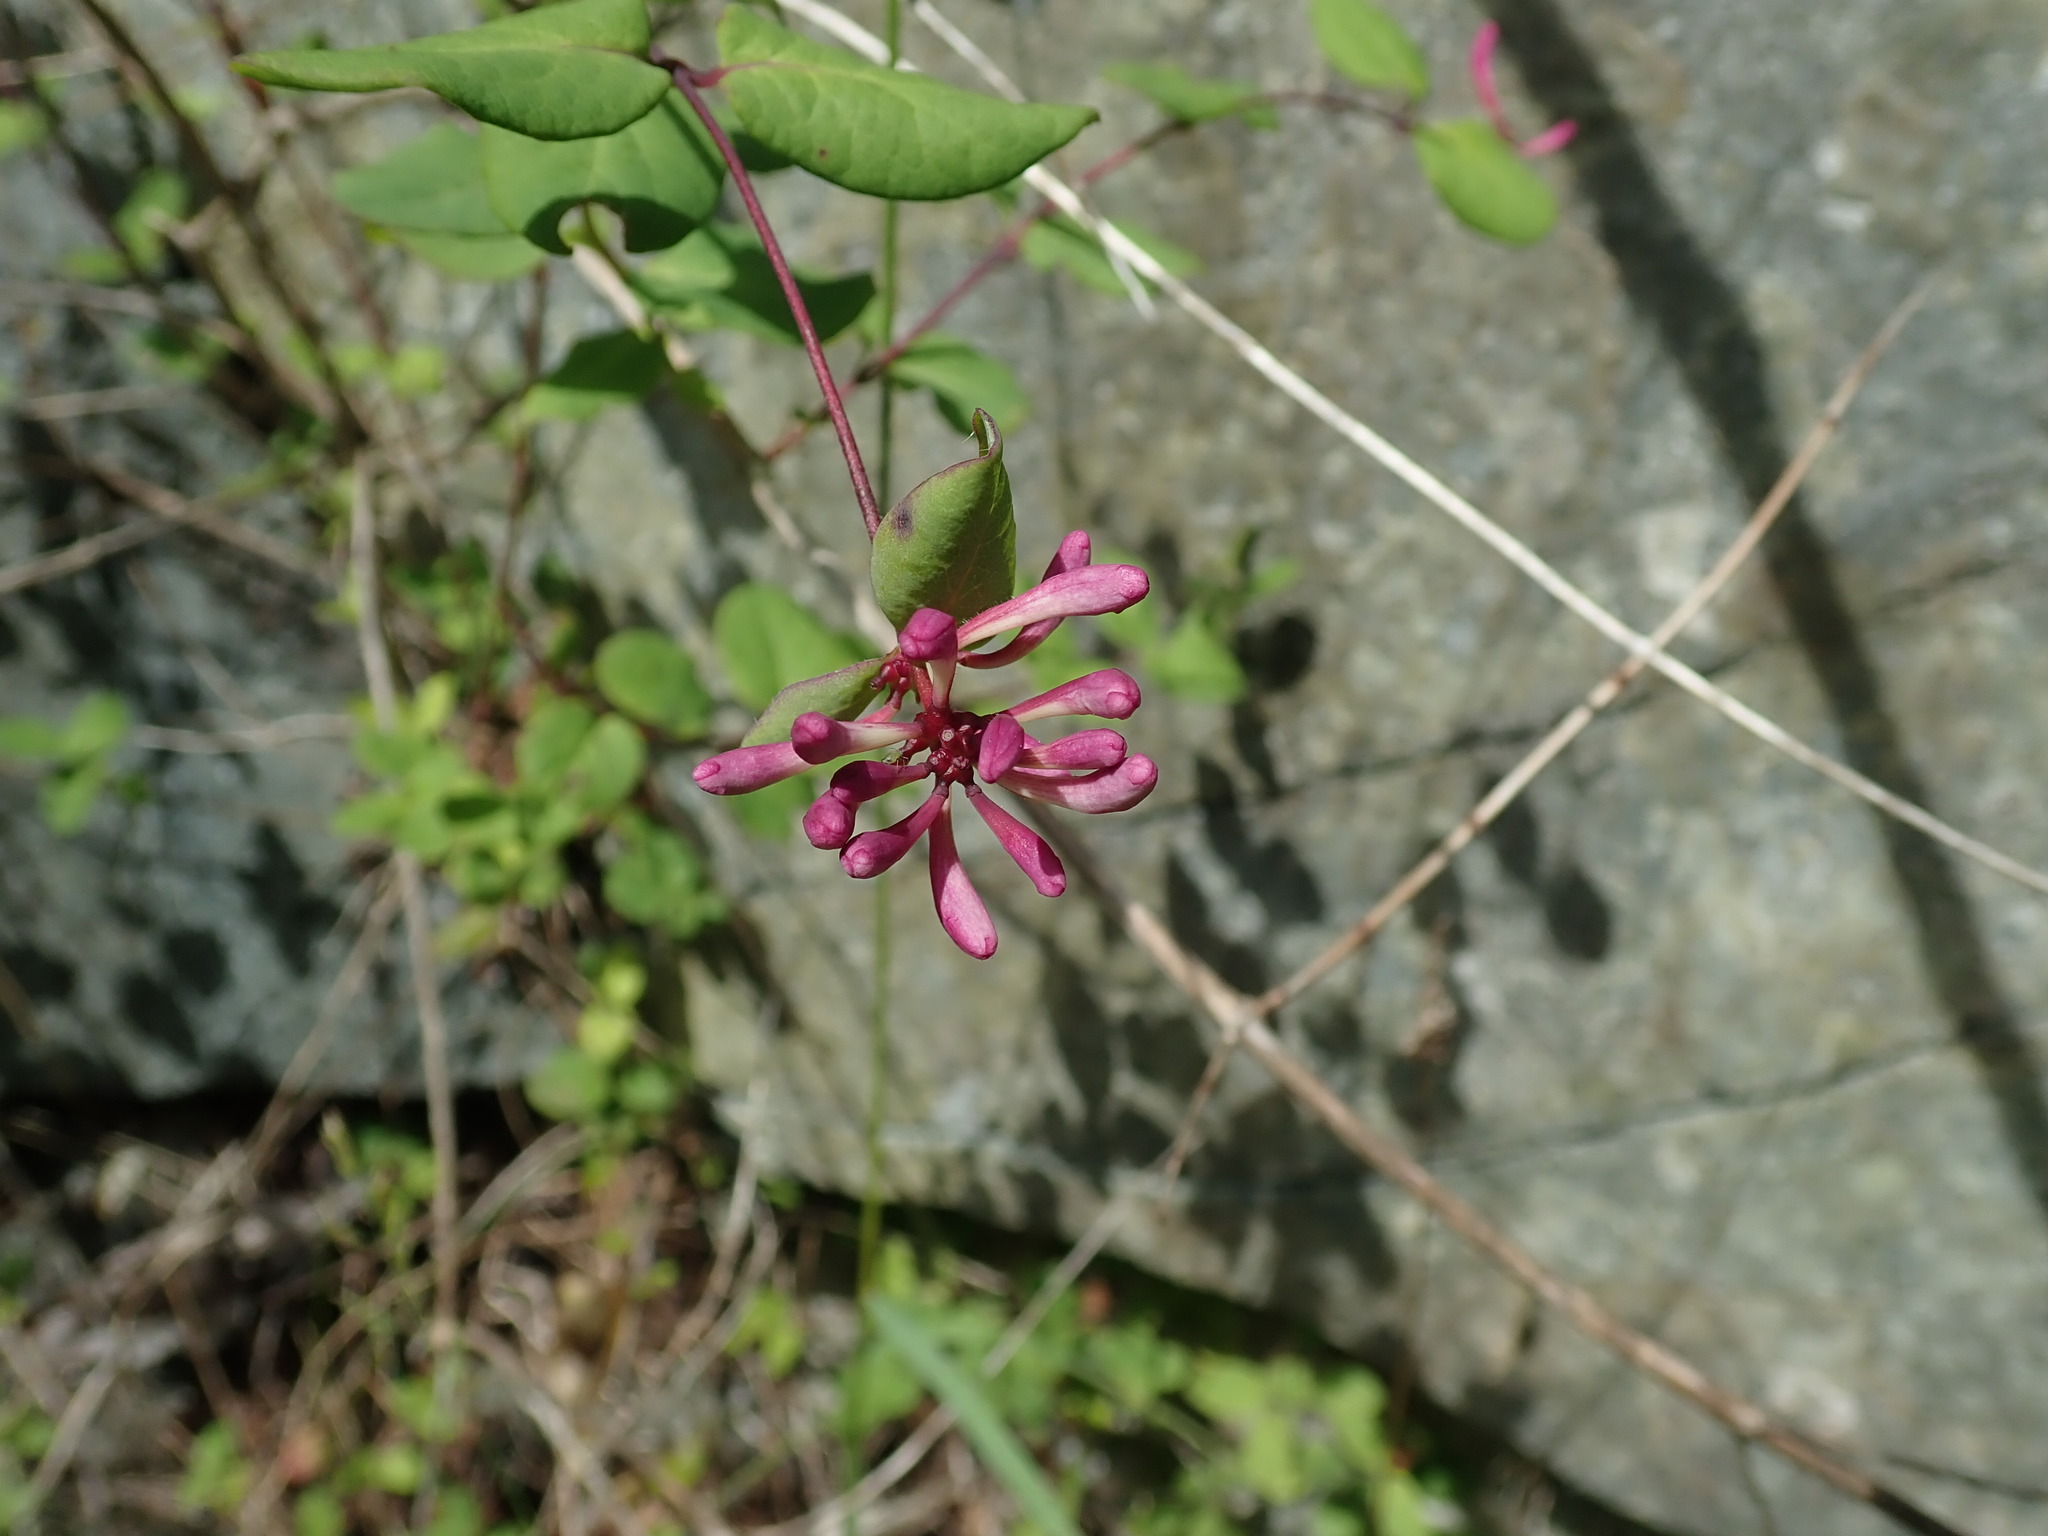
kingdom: Plantae
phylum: Tracheophyta
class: Magnoliopsida
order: Dipsacales
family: Caprifoliaceae
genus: Lonicera
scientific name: Lonicera hispidula
